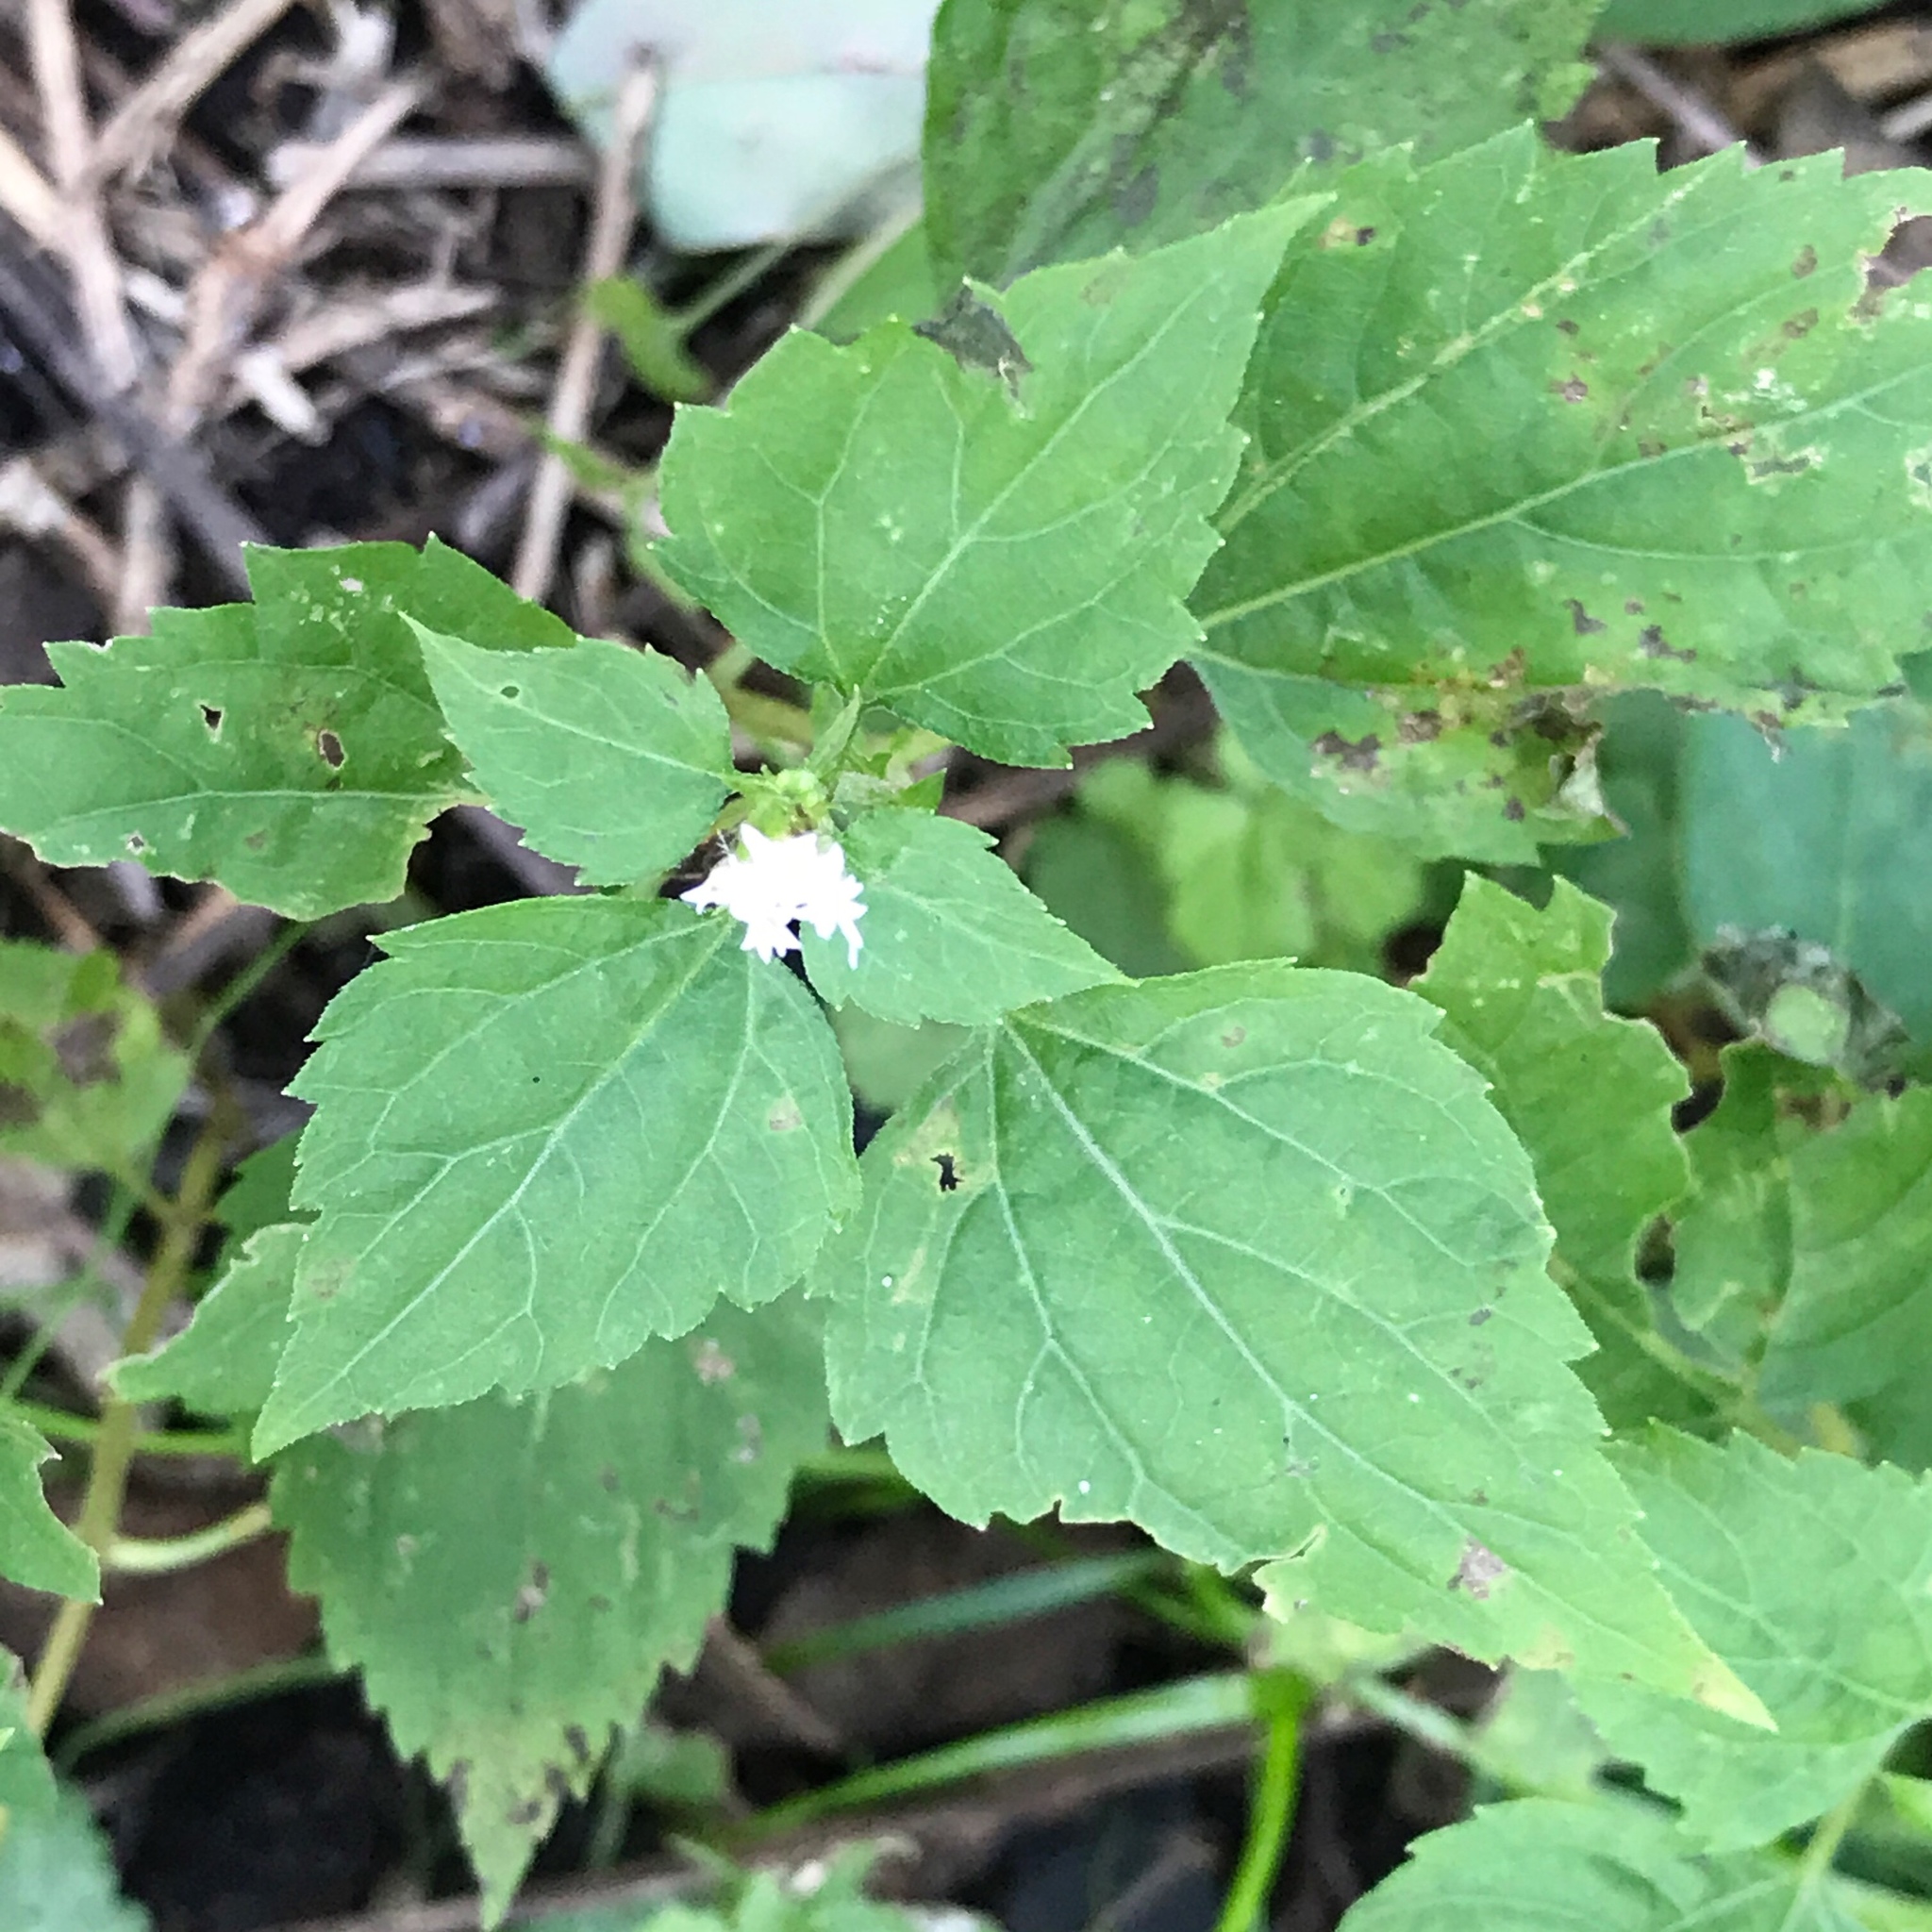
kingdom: Plantae
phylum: Tracheophyta
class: Magnoliopsida
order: Asterales
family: Asteraceae
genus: Ageratina
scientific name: Ageratina altissima
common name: White snakeroot
